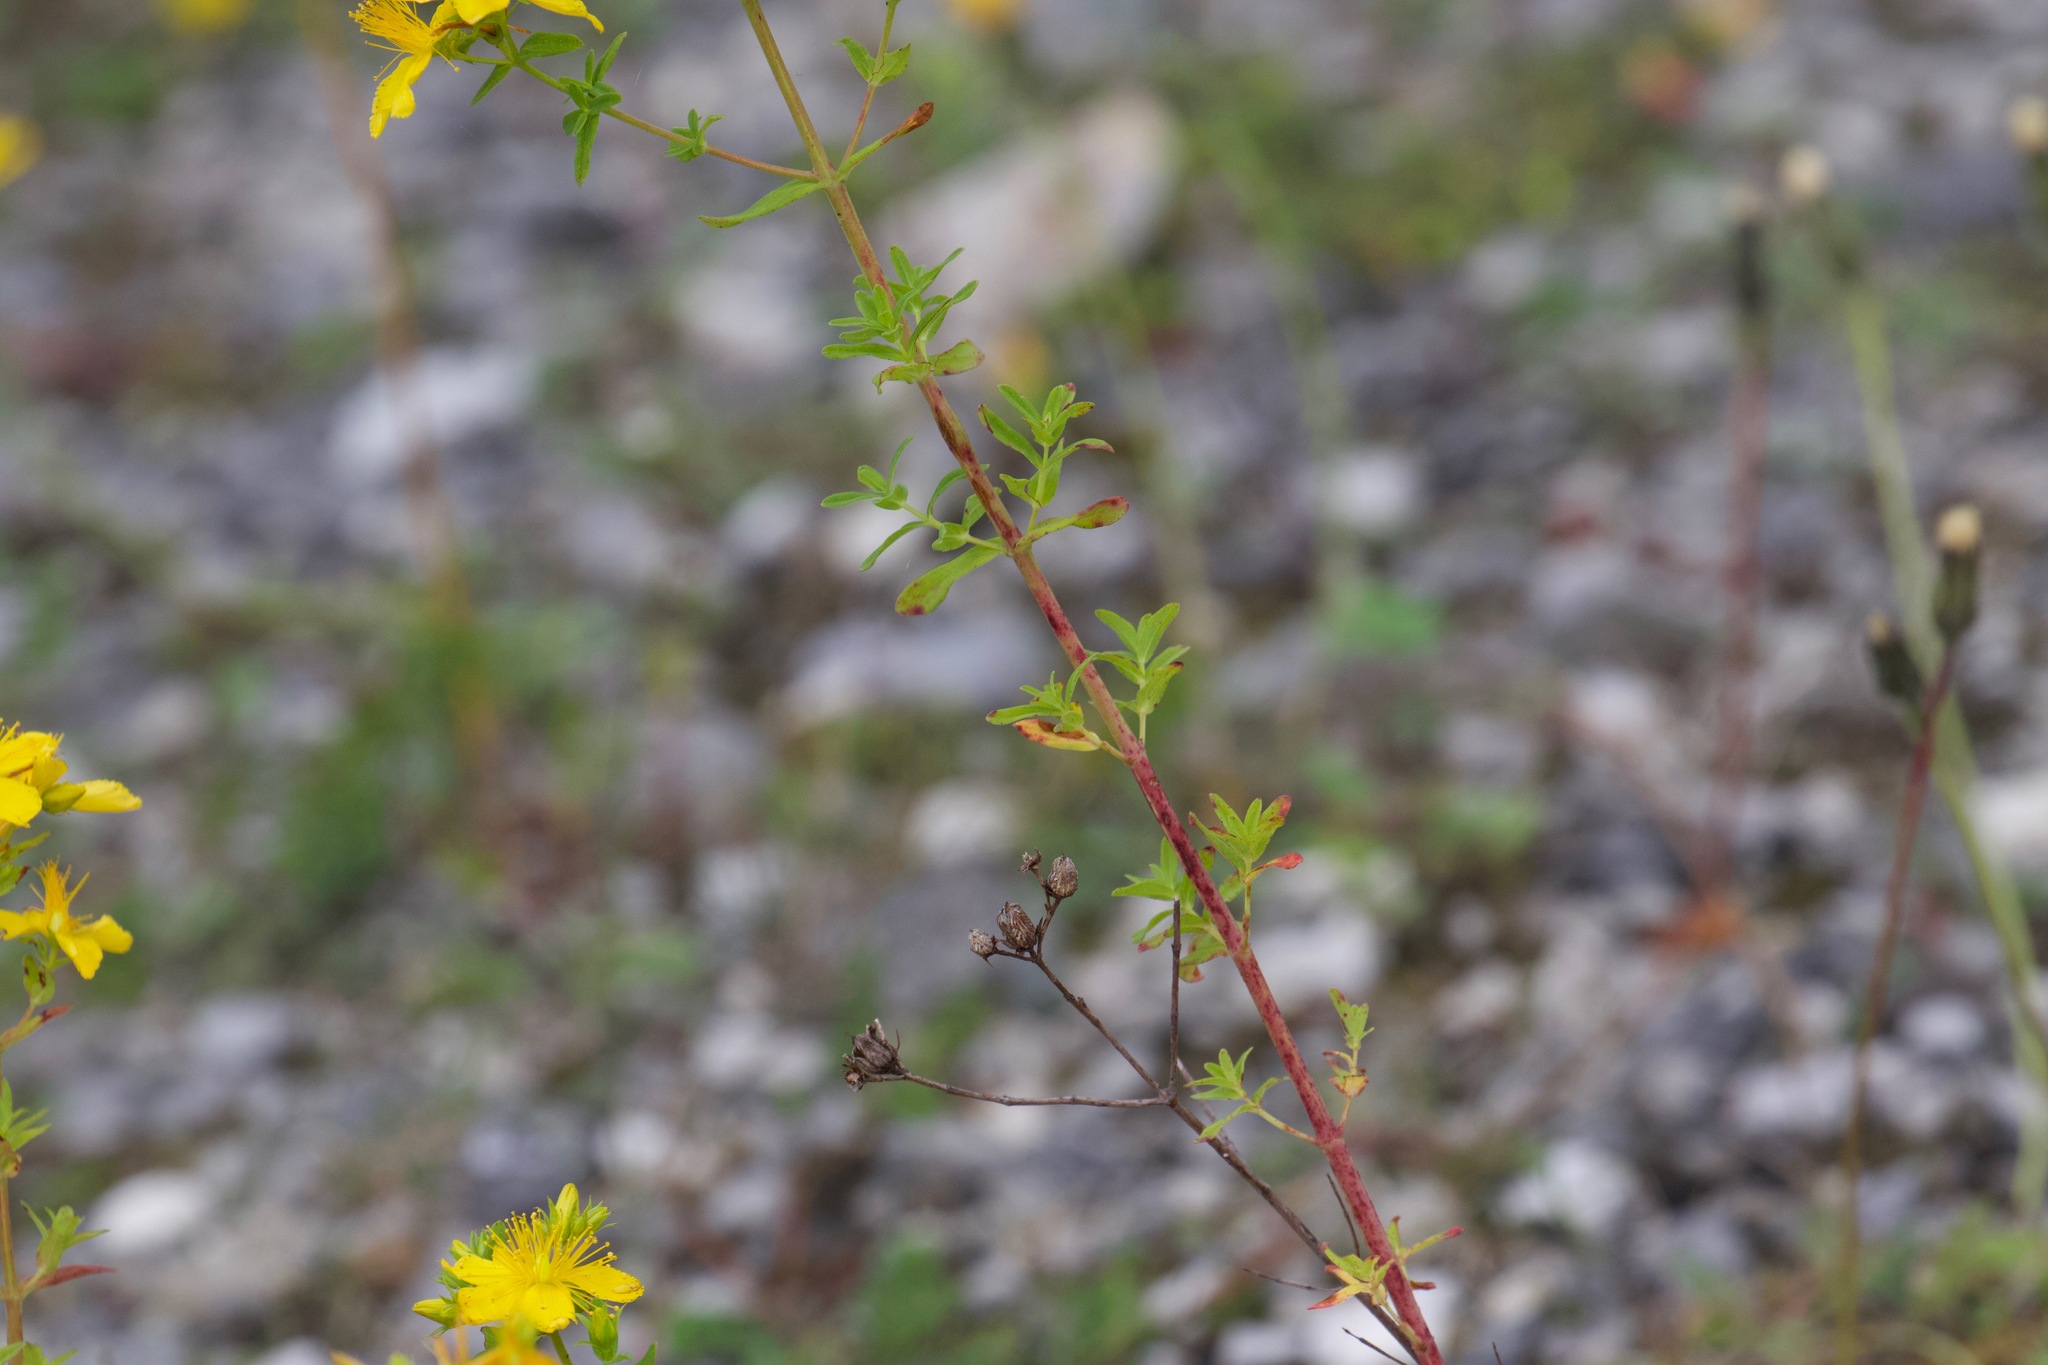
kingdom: Plantae
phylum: Tracheophyta
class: Magnoliopsida
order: Malpighiales
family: Hypericaceae
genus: Hypericum
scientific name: Hypericum perforatum
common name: Common st. johnswort
